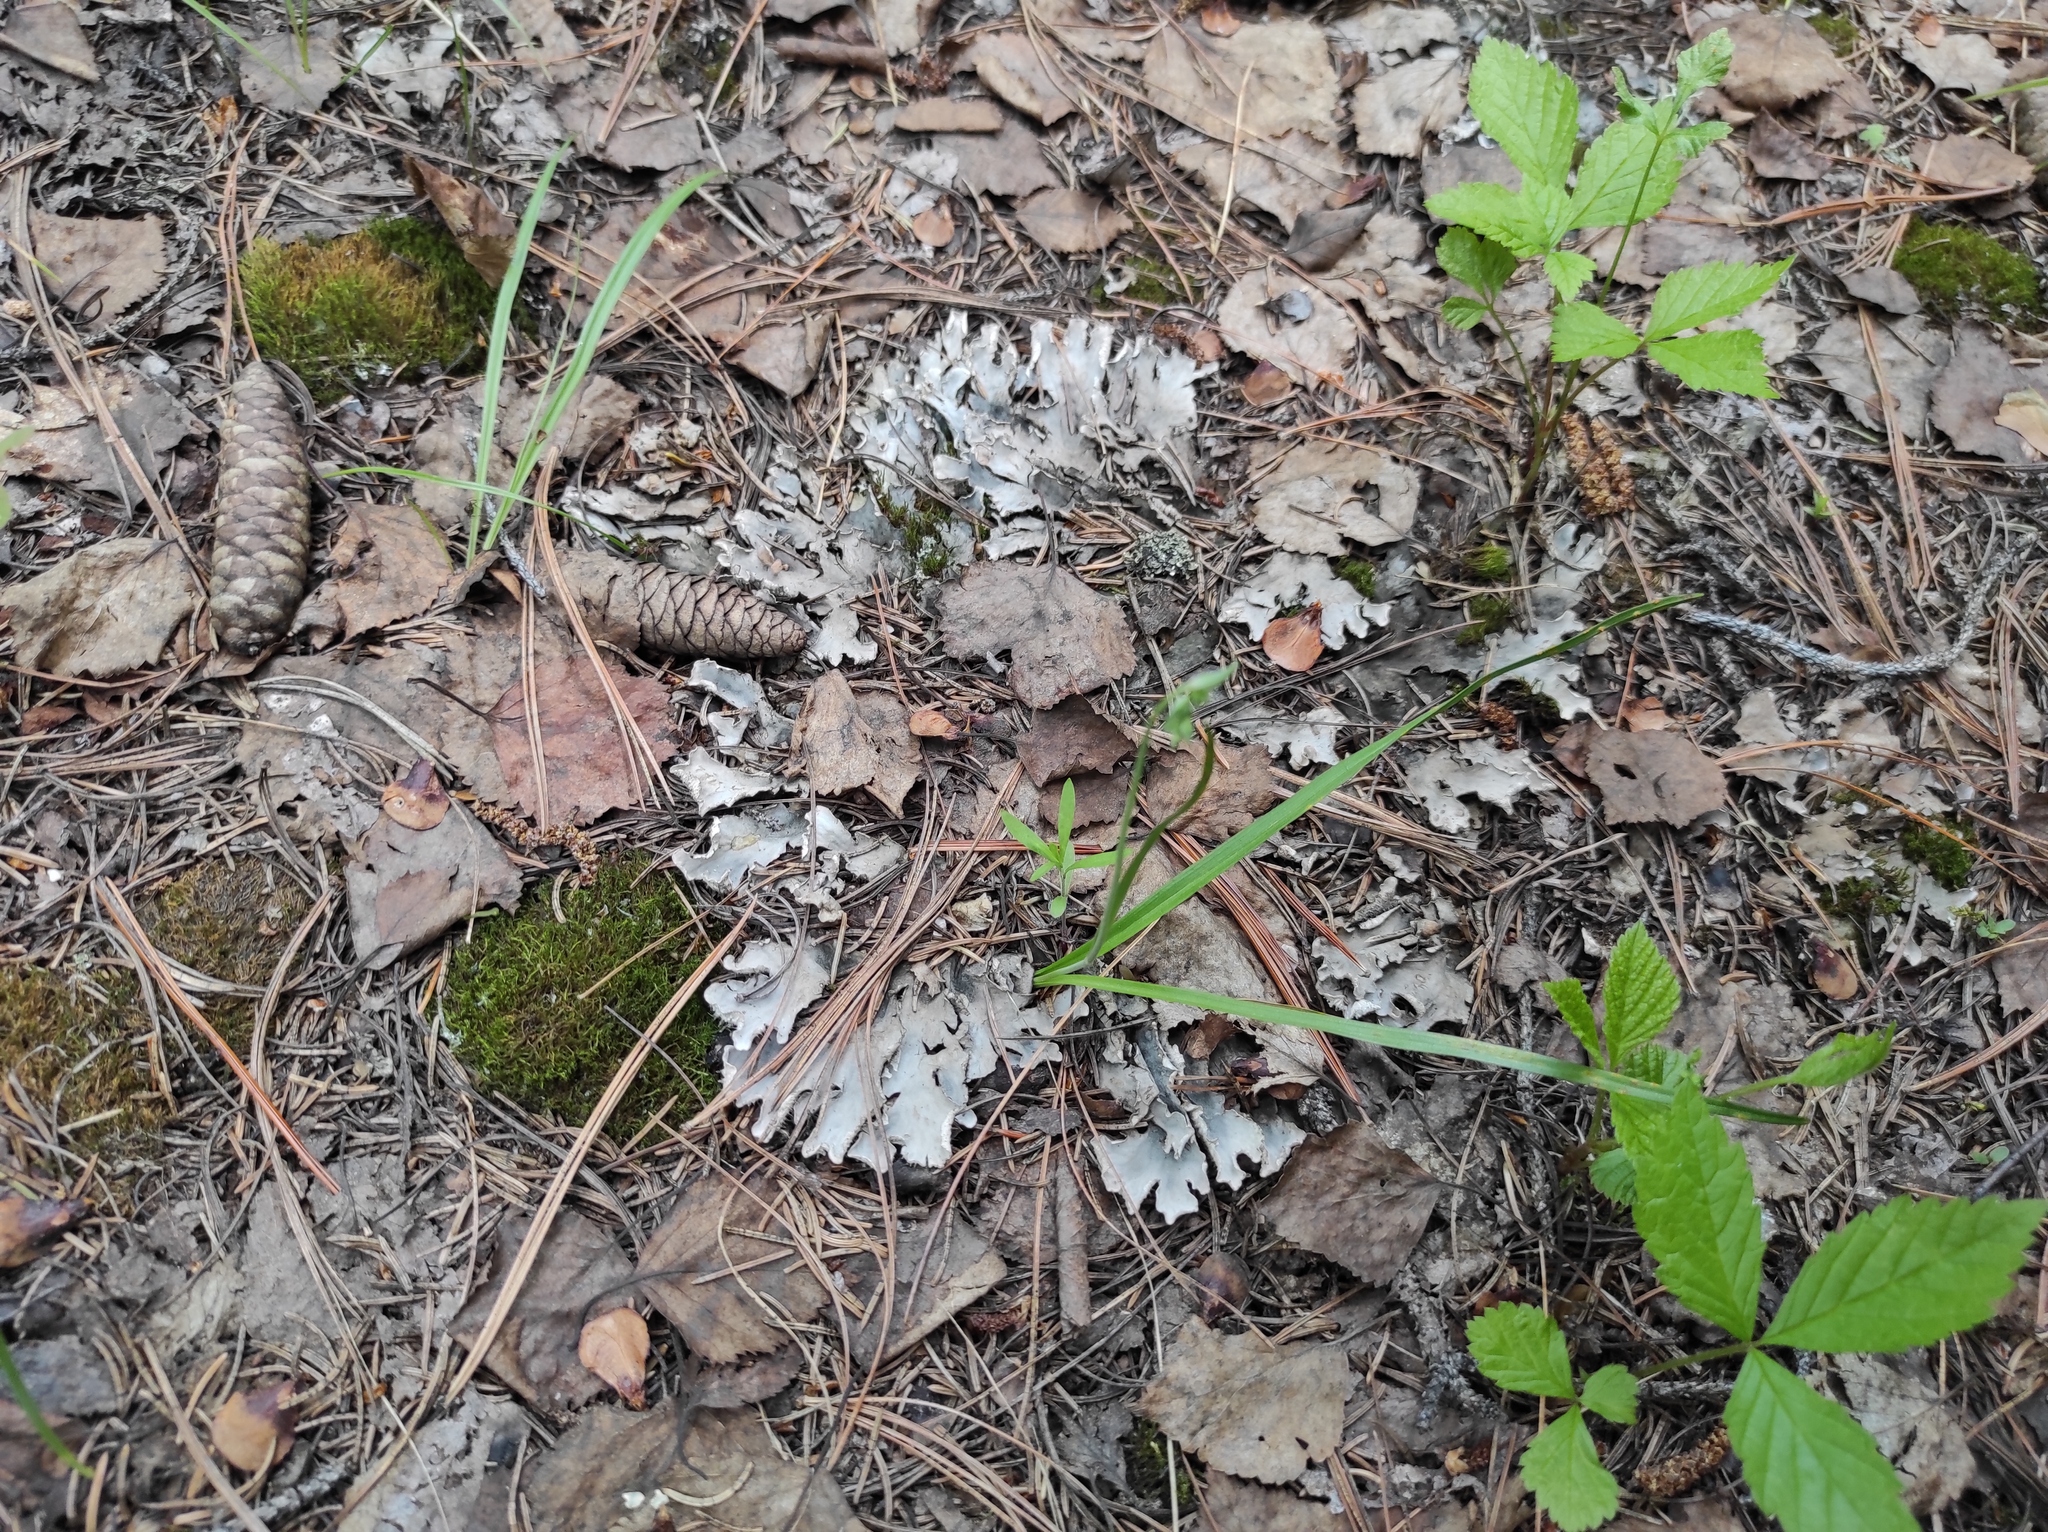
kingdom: Plantae
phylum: Tracheophyta
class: Magnoliopsida
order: Rosales
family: Rosaceae
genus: Rubus
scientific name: Rubus saxatilis
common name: Stone bramble
